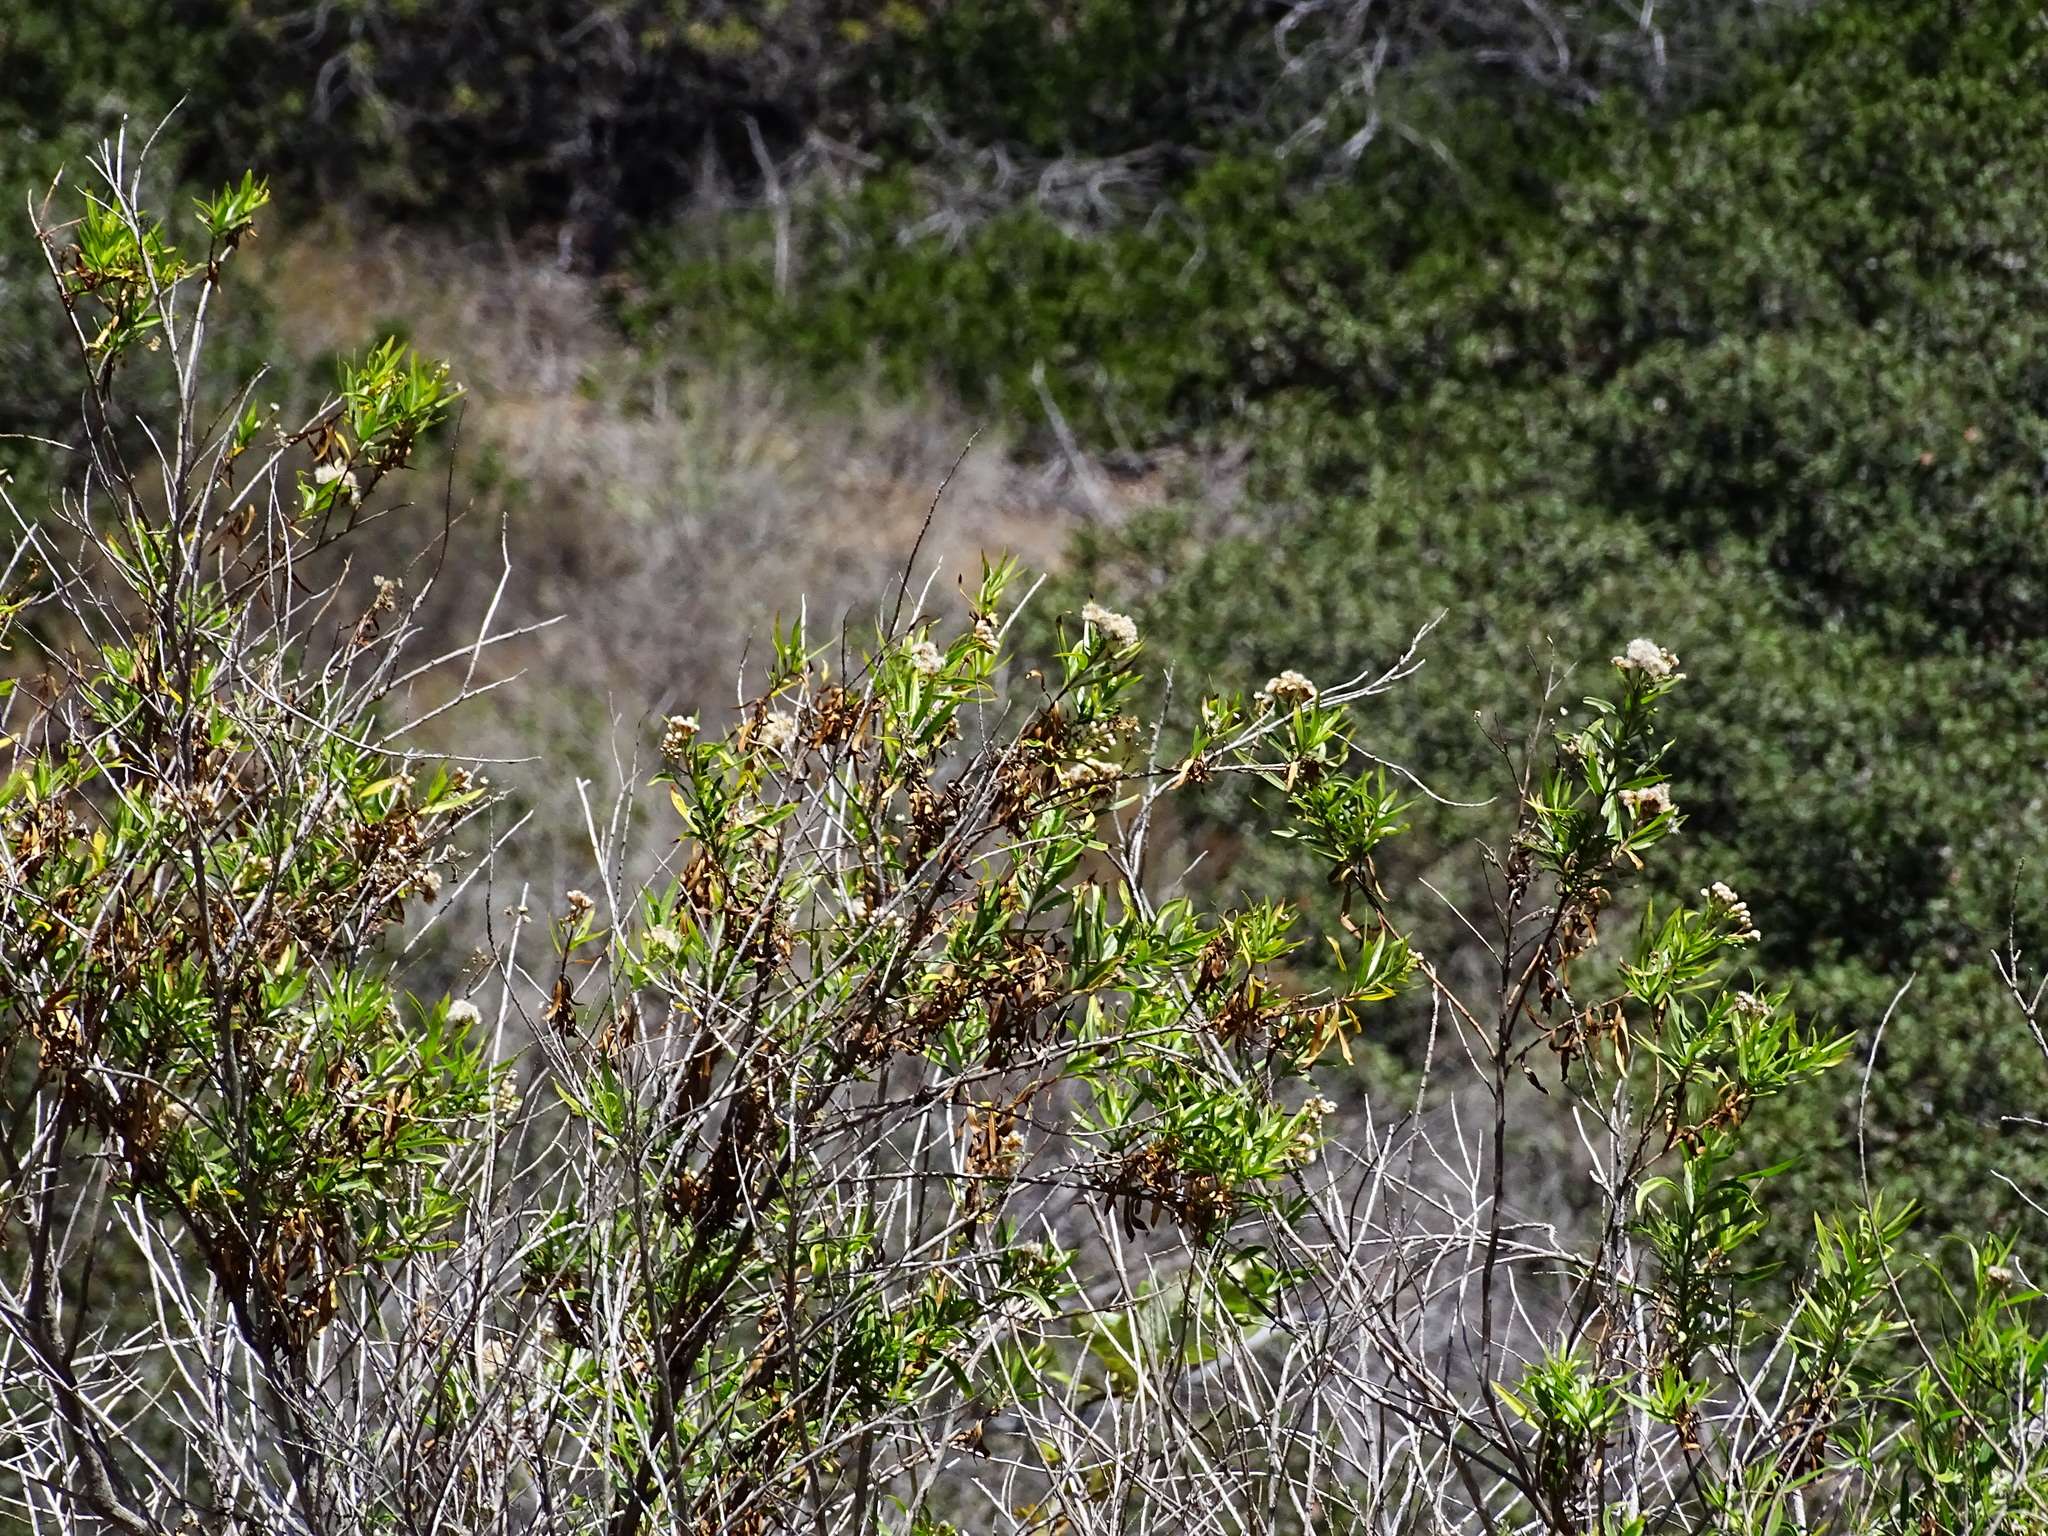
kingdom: Plantae
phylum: Tracheophyta
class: Magnoliopsida
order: Asterales
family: Asteraceae
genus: Baccharis
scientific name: Baccharis salicifolia
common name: Sticky baccharis
